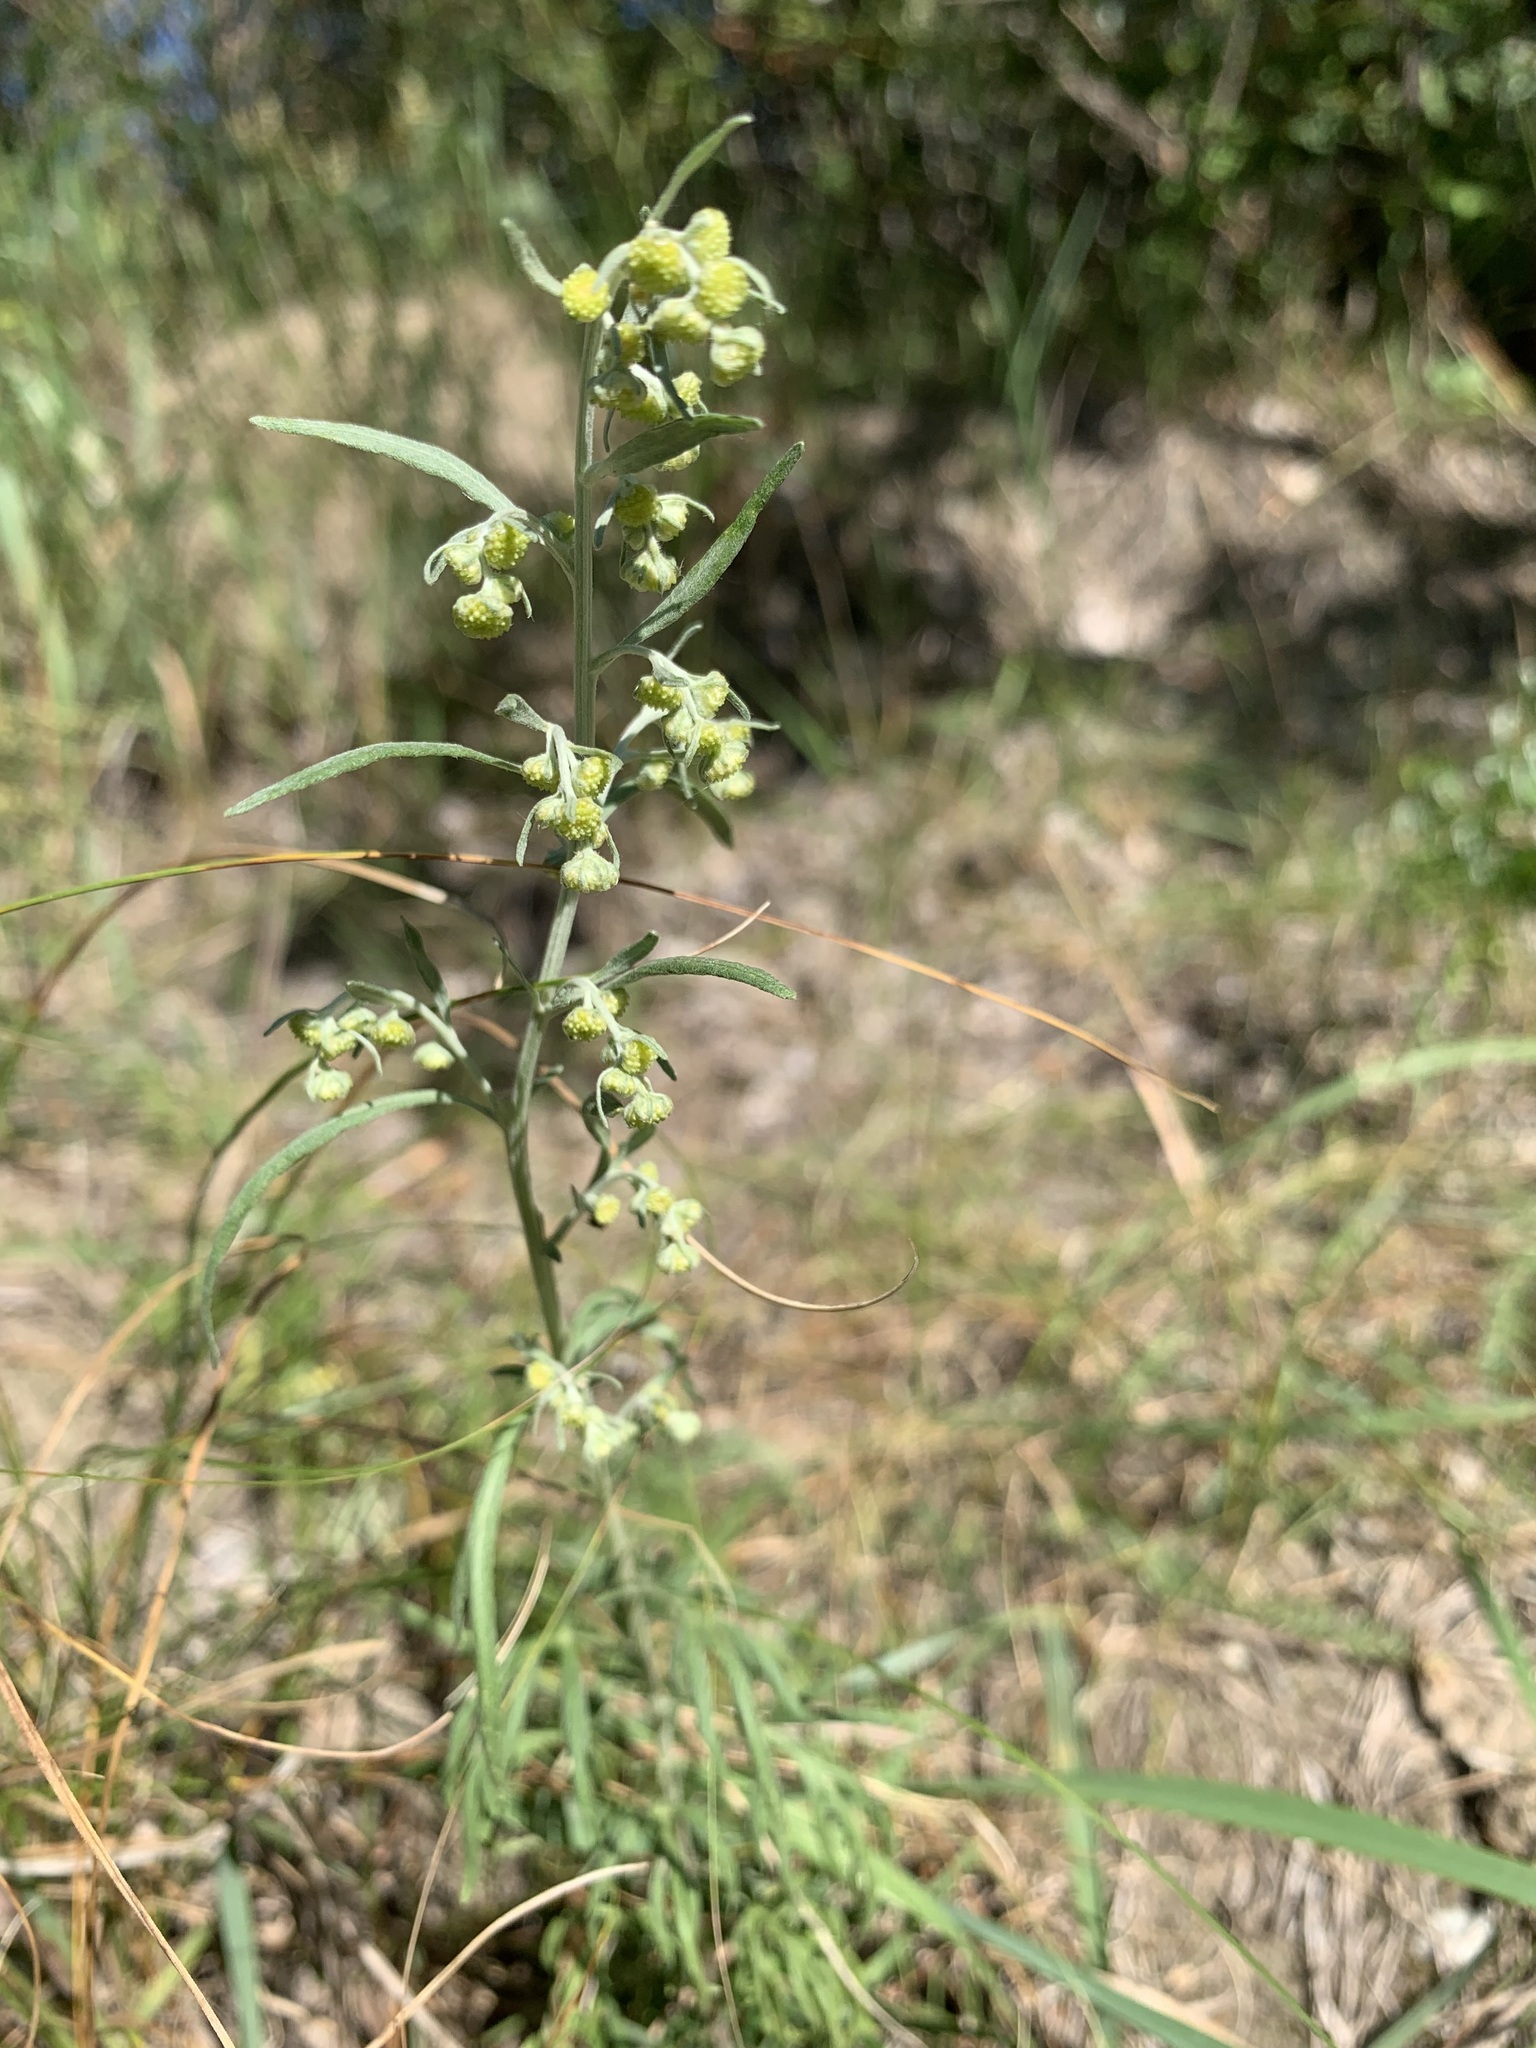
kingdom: Plantae
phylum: Tracheophyta
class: Magnoliopsida
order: Asterales
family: Asteraceae
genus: Artemisia
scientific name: Artemisia sieversiana
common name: Sieversian wormwood
